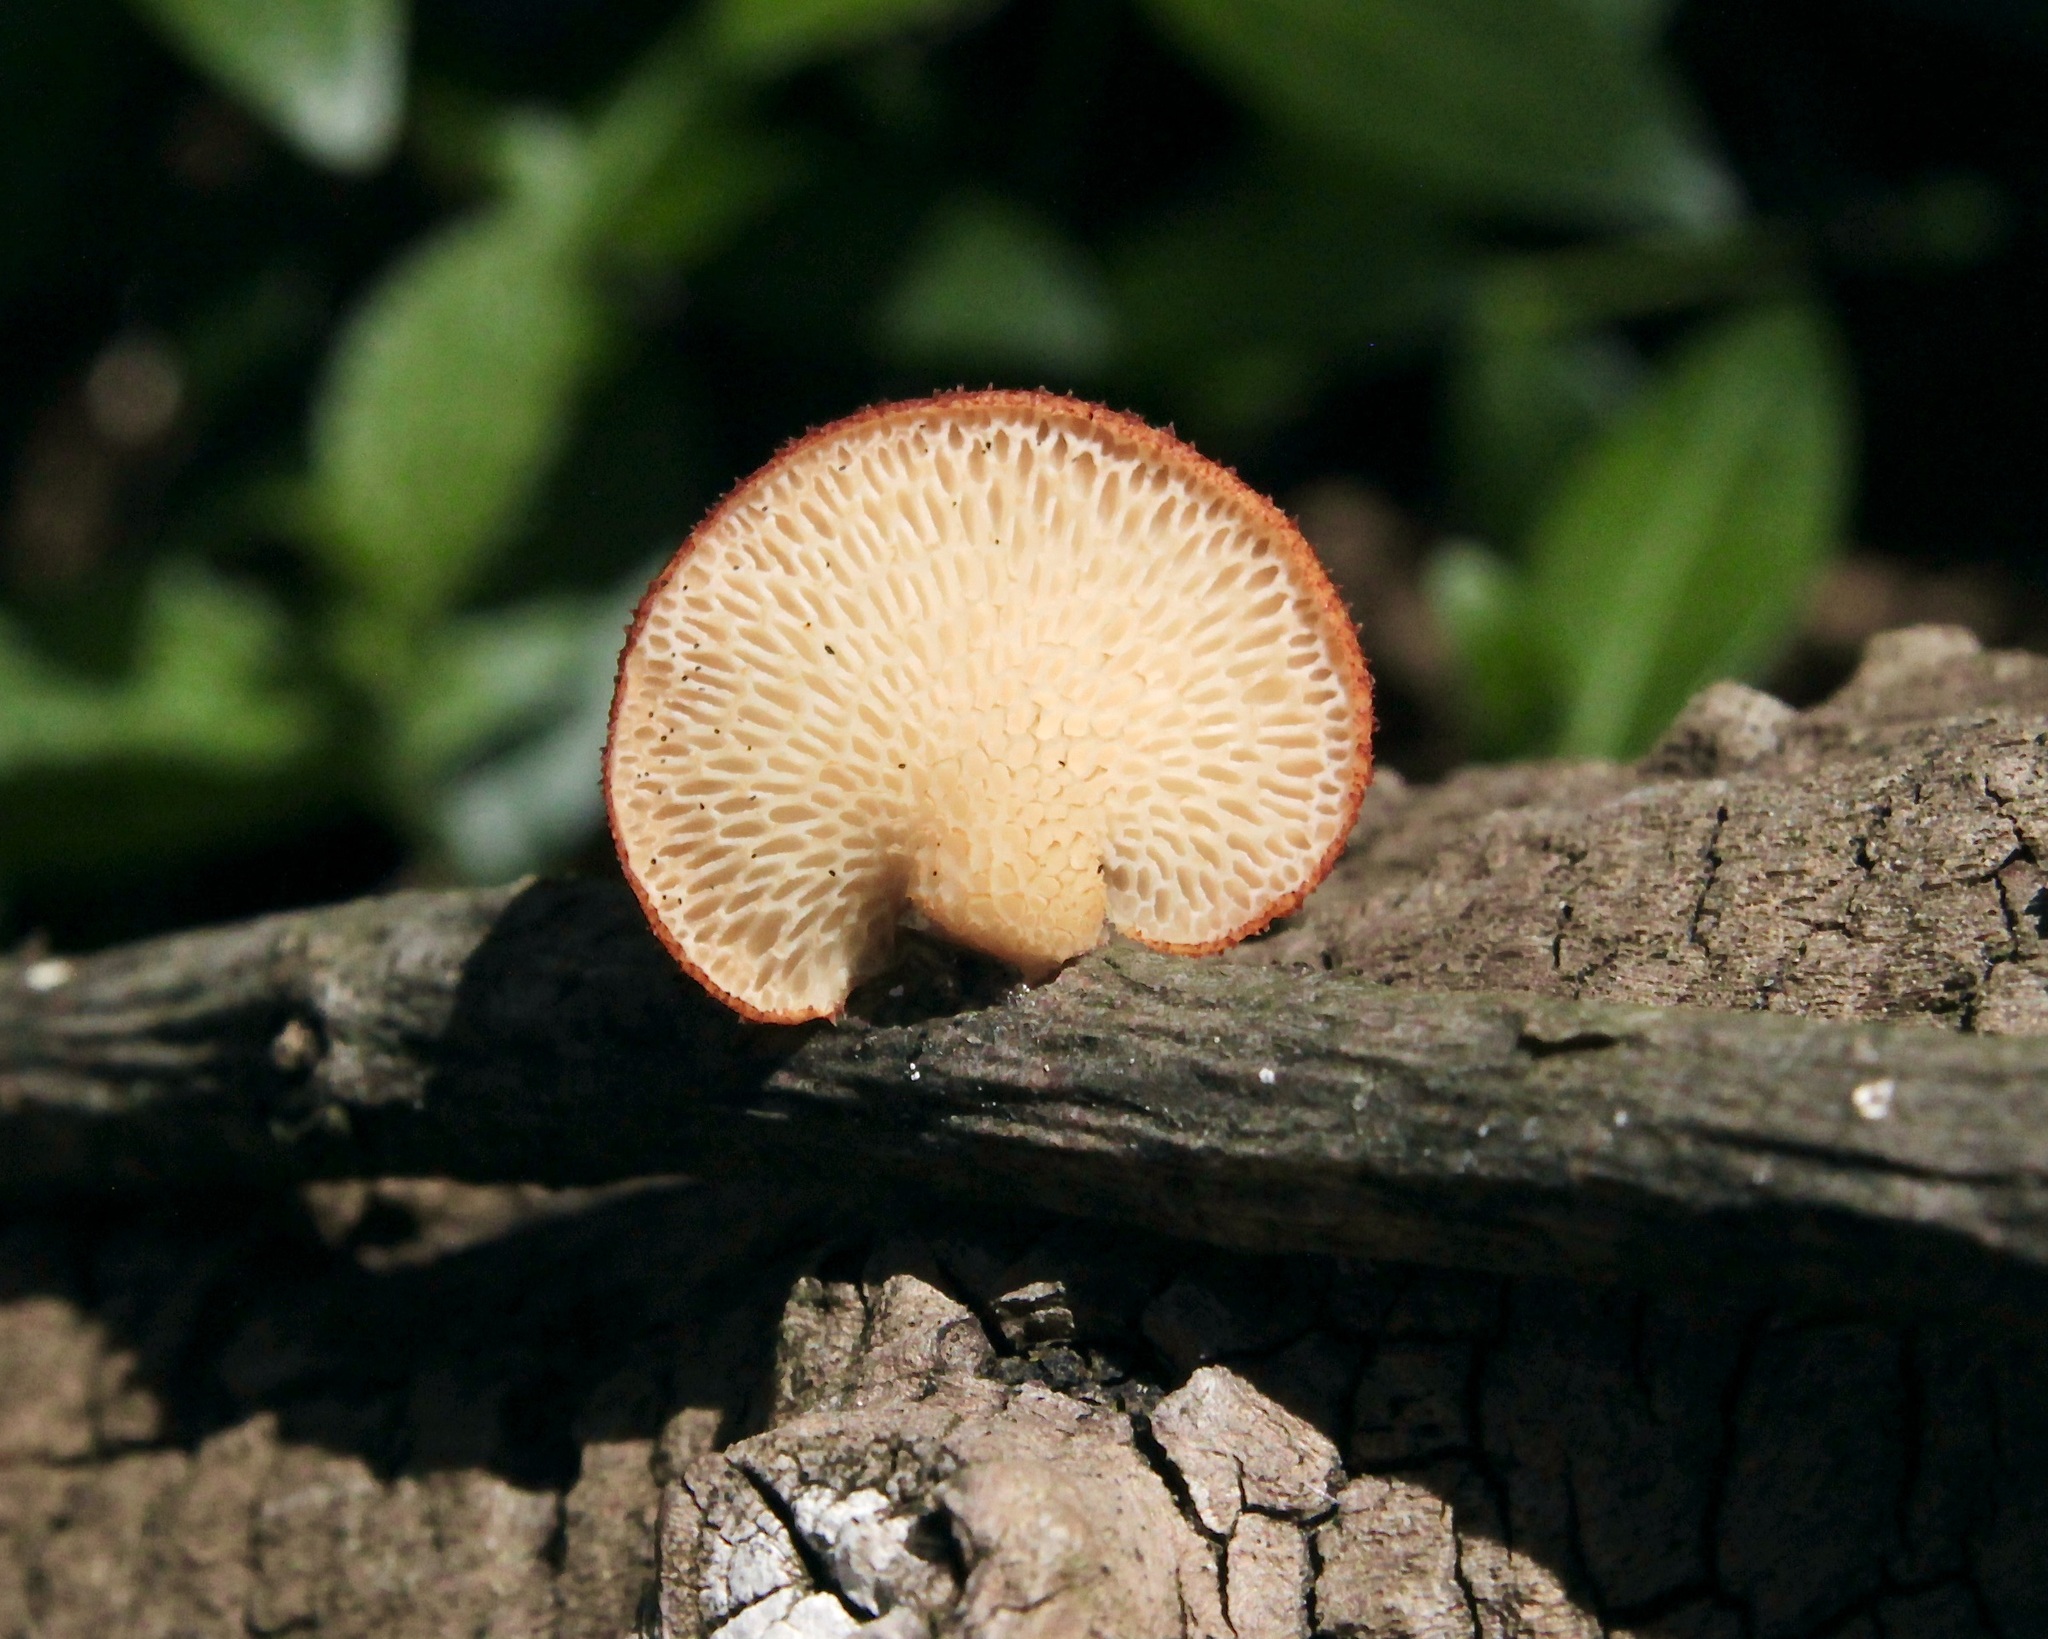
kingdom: Fungi
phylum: Basidiomycota
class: Agaricomycetes
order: Polyporales
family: Polyporaceae
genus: Neofavolus
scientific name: Neofavolus alveolaris
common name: Hexagonal-pored polypore
